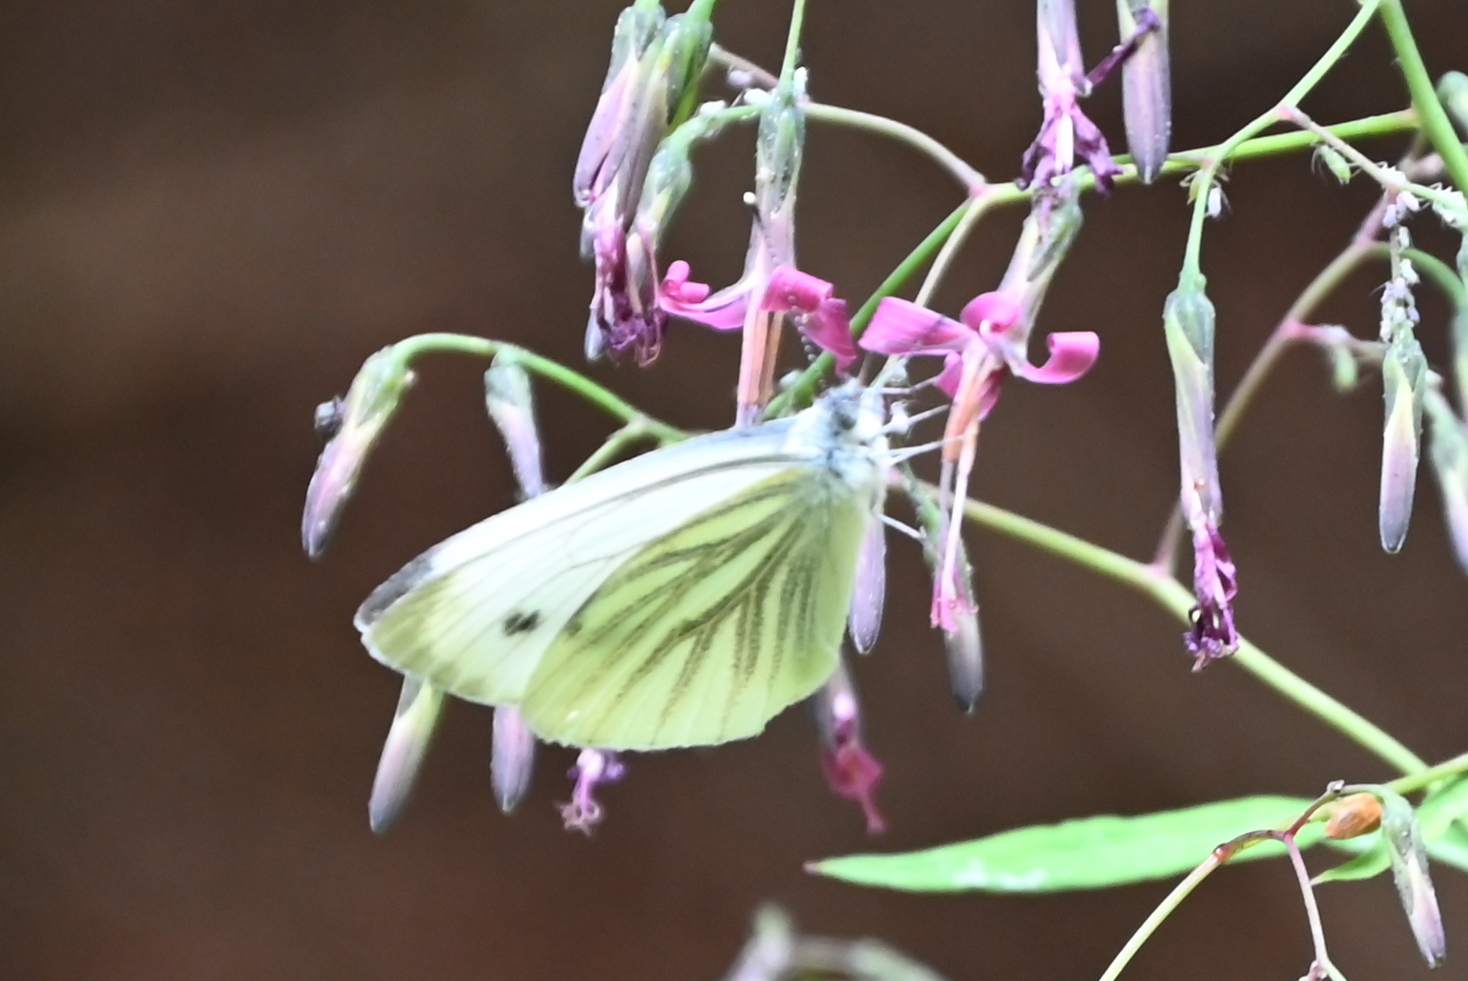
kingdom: Animalia
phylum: Arthropoda
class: Insecta
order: Lepidoptera
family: Pieridae
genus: Pieris
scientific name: Pieris napi
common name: Green-veined white
